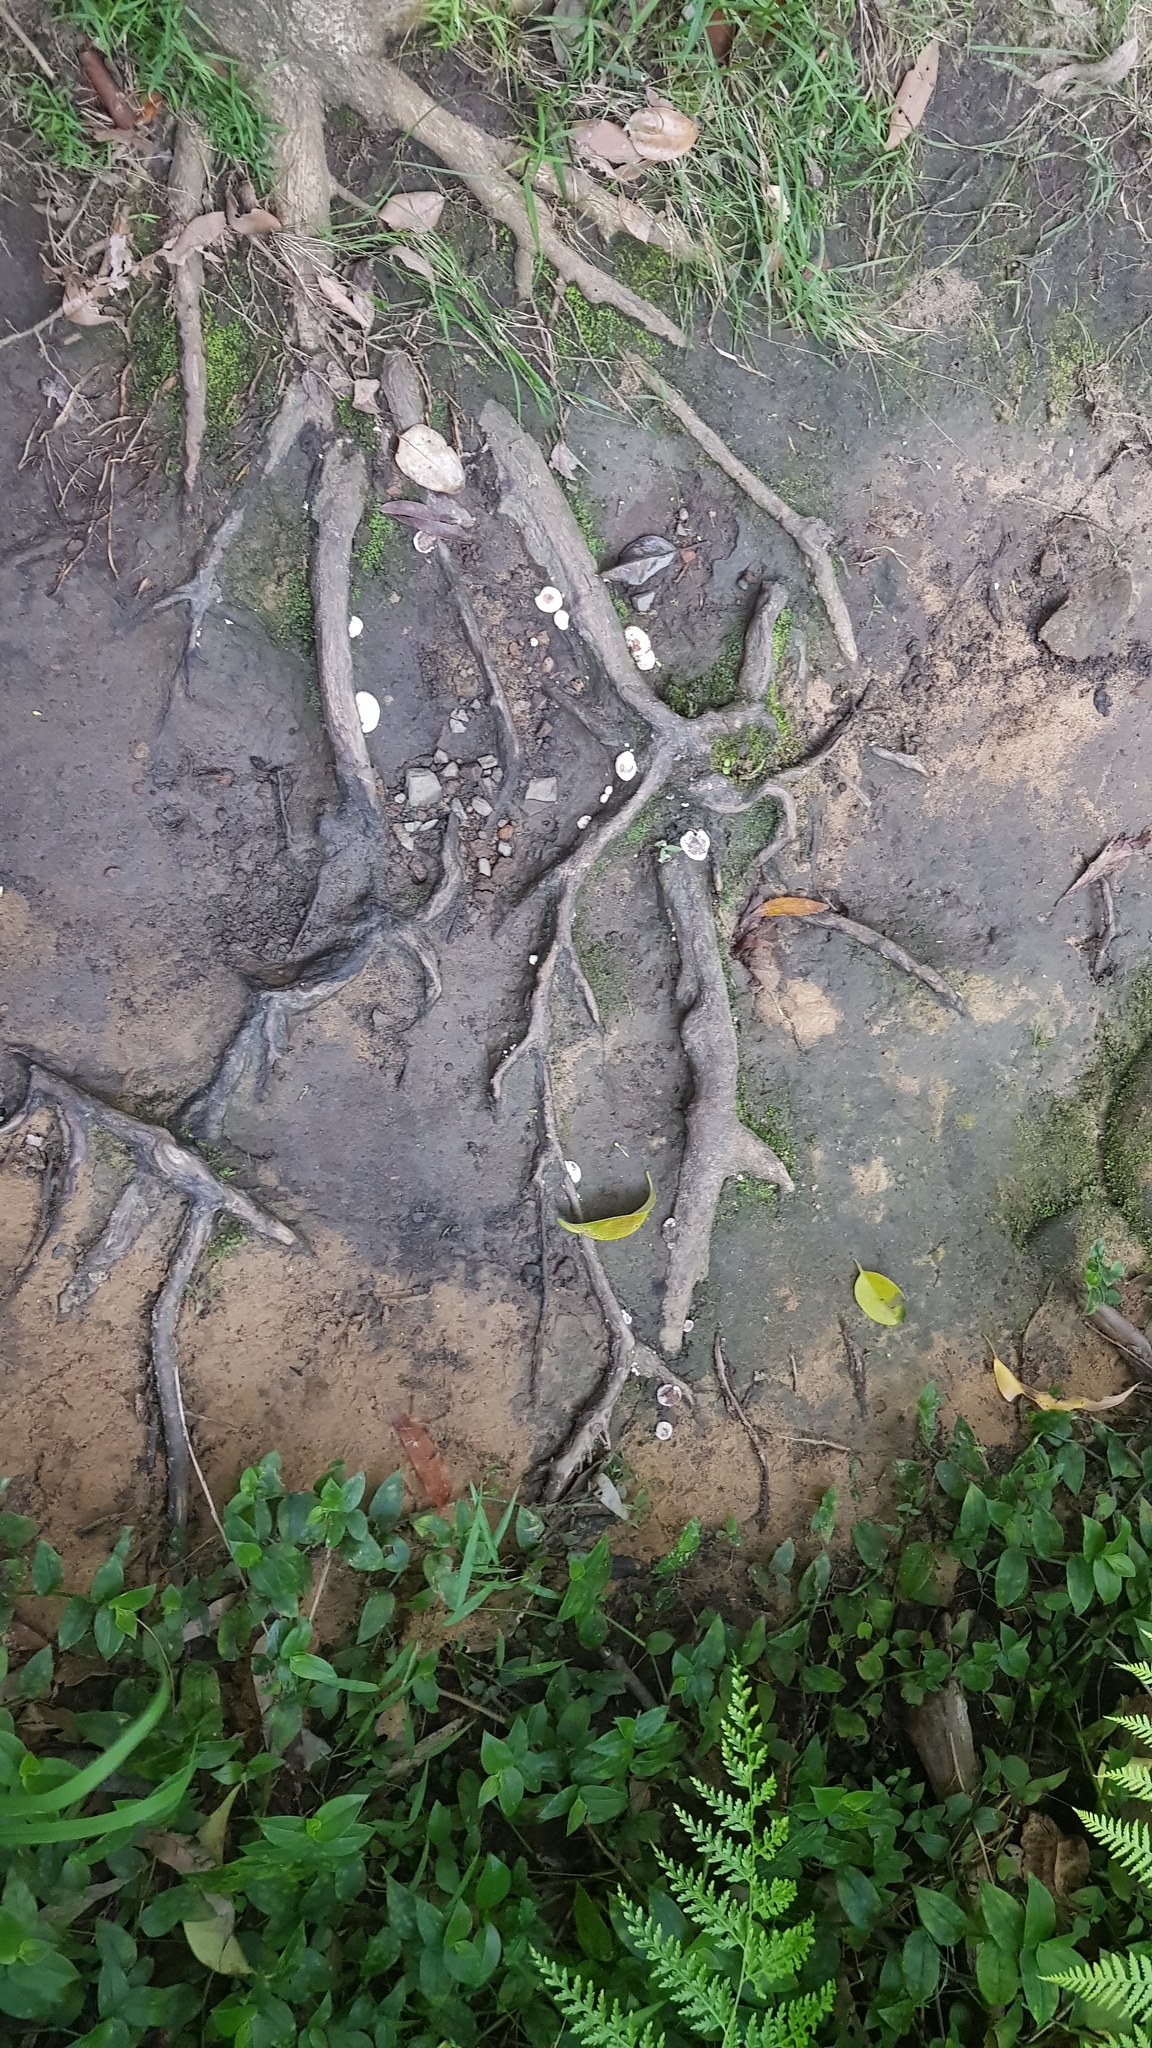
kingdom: Fungi
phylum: Basidiomycota
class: Agaricomycetes
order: Polyporales
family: Podoscyphaceae
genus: Abortiporus
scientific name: Abortiporus biennis
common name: Blushing rosette
